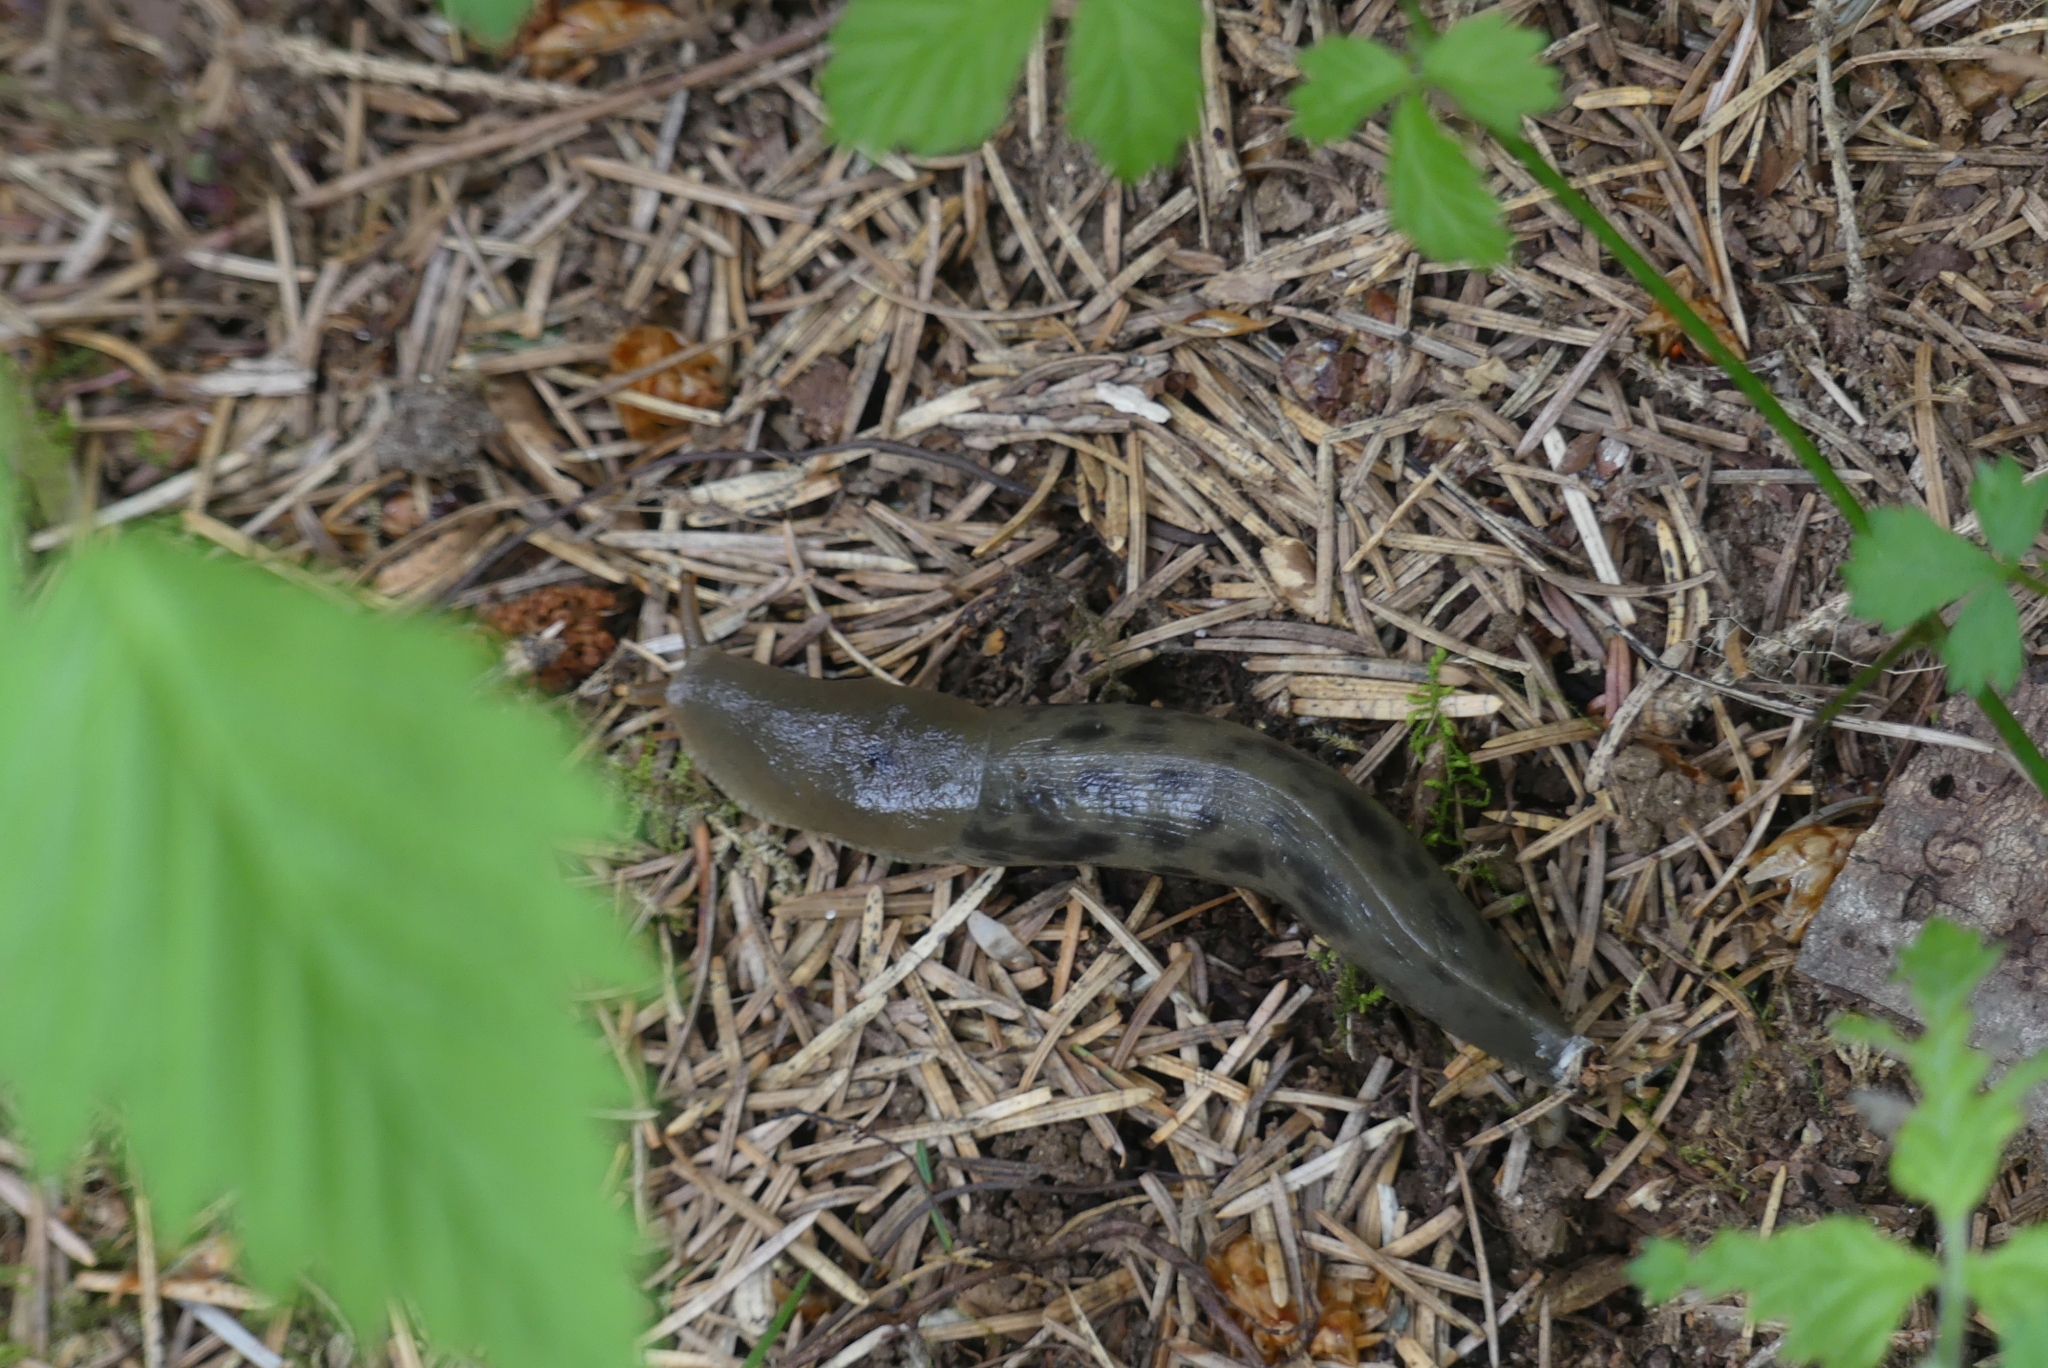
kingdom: Animalia
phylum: Mollusca
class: Gastropoda
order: Stylommatophora
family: Ariolimacidae
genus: Ariolimax
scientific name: Ariolimax columbianus
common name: Pacific banana slug
